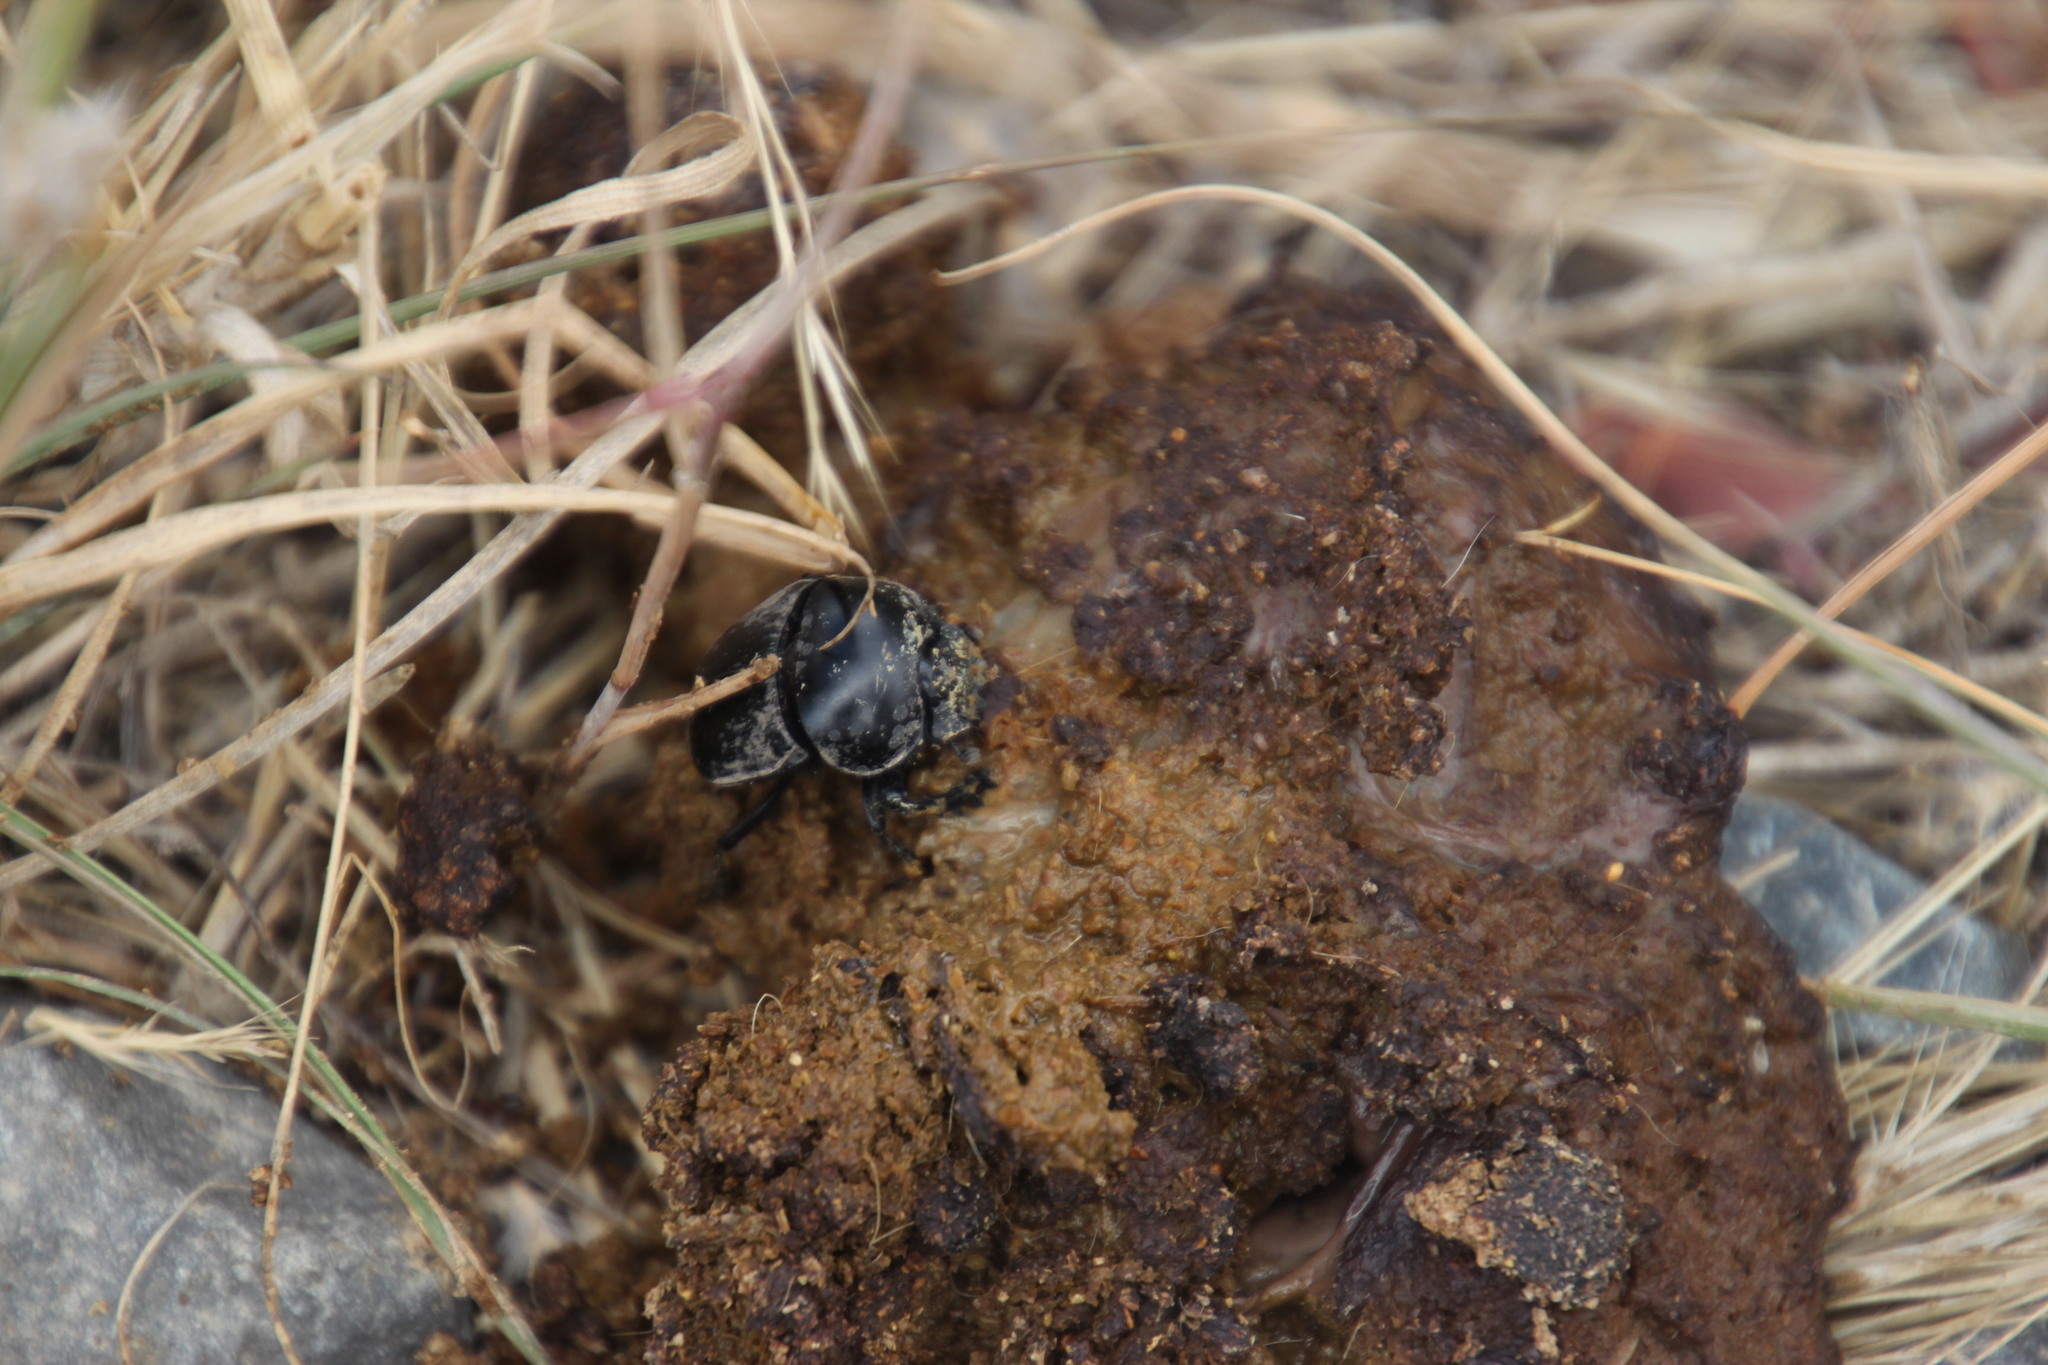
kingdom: Animalia
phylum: Chordata
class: Mammalia
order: Carnivora
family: Canidae
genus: Canis
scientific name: Canis lupus
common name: Gray wolf
